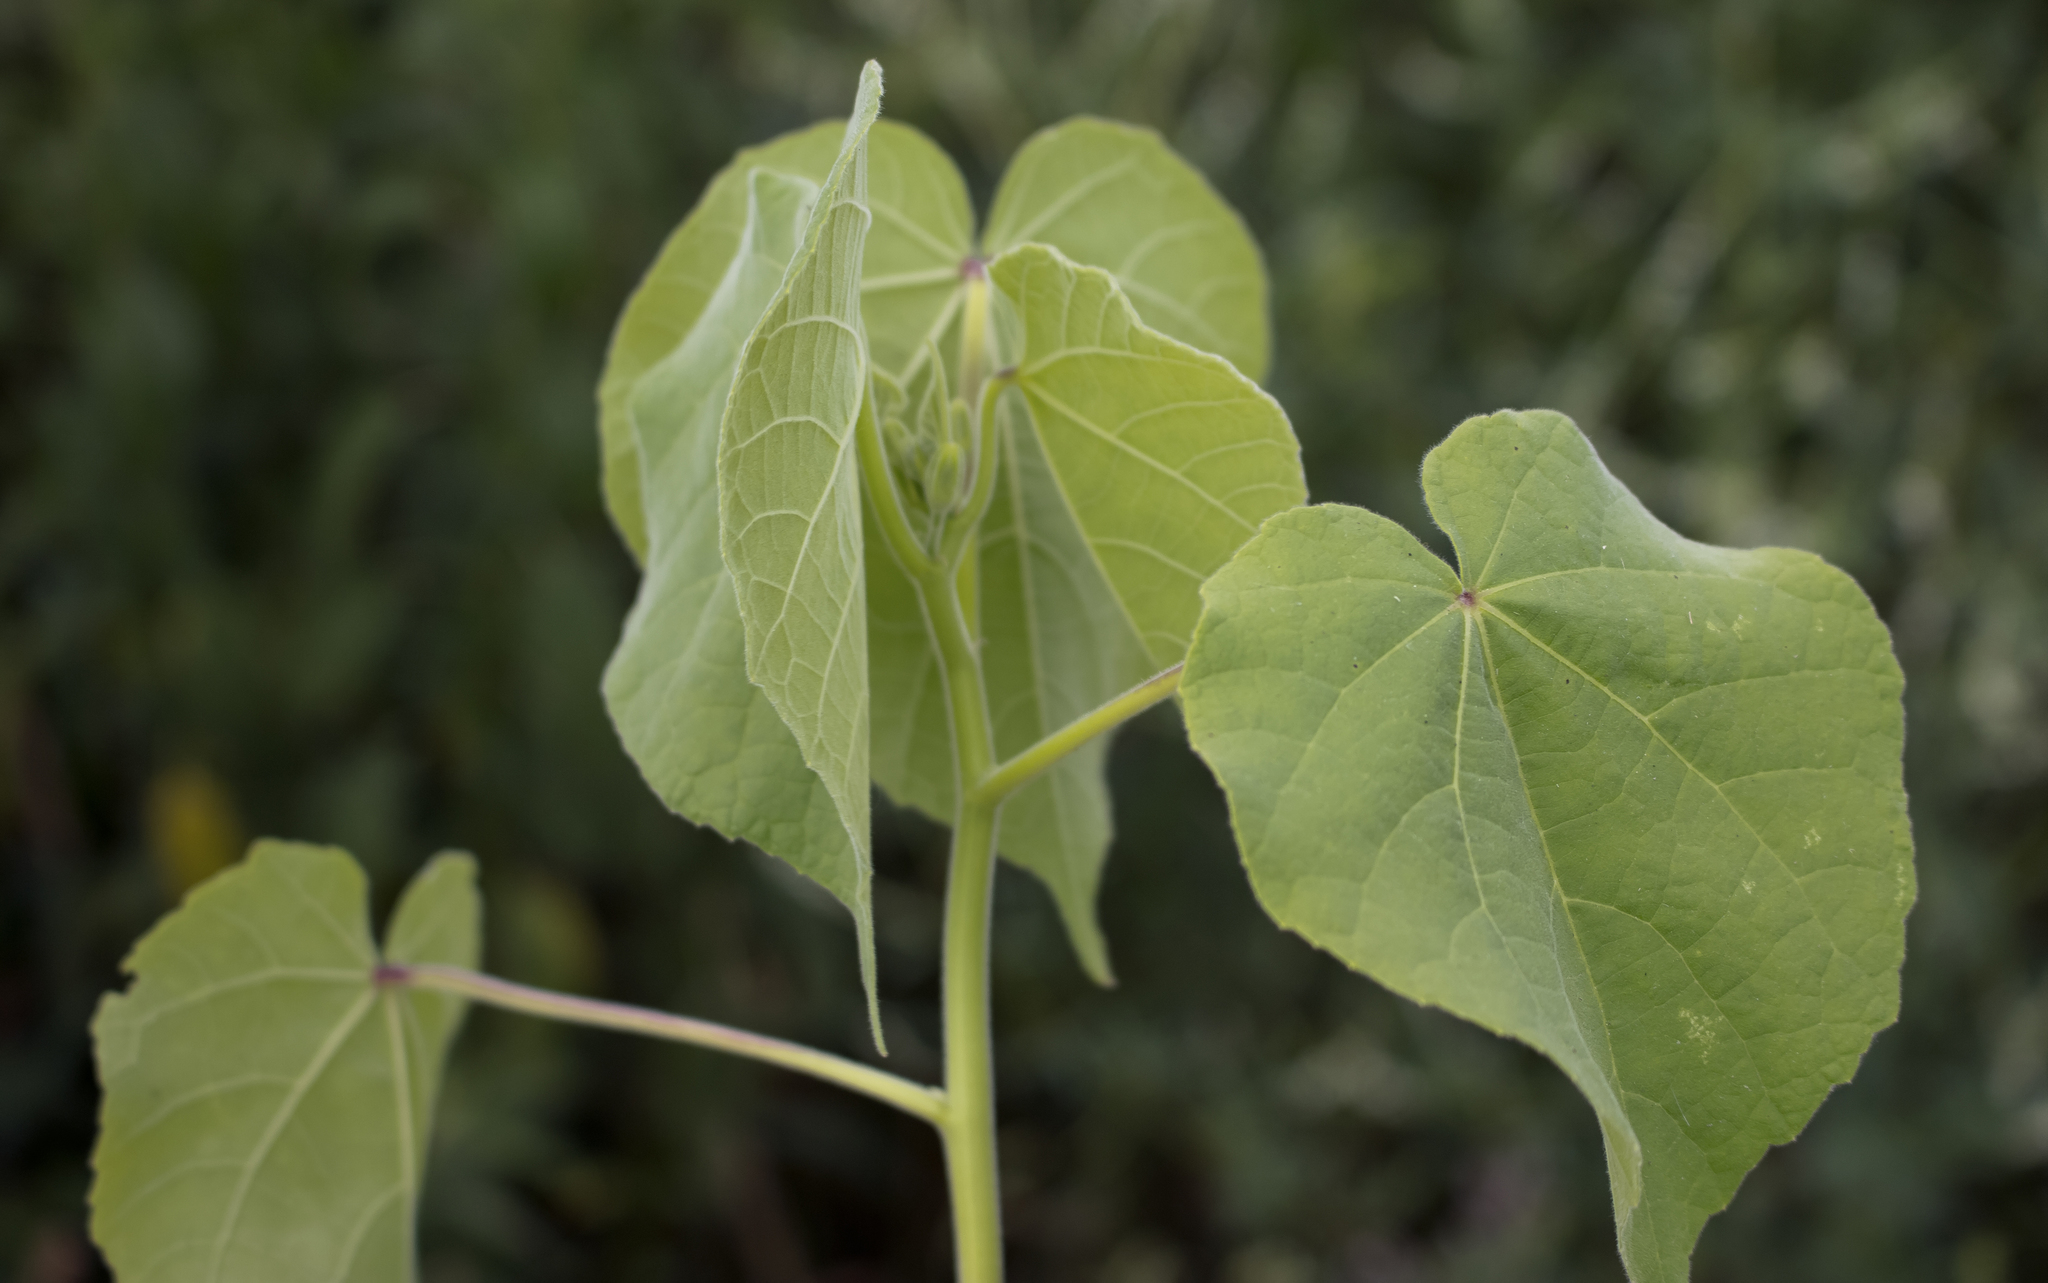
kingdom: Plantae
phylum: Tracheophyta
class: Magnoliopsida
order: Malvales
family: Malvaceae
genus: Abutilon
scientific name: Abutilon theophrasti
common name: Velvetleaf
